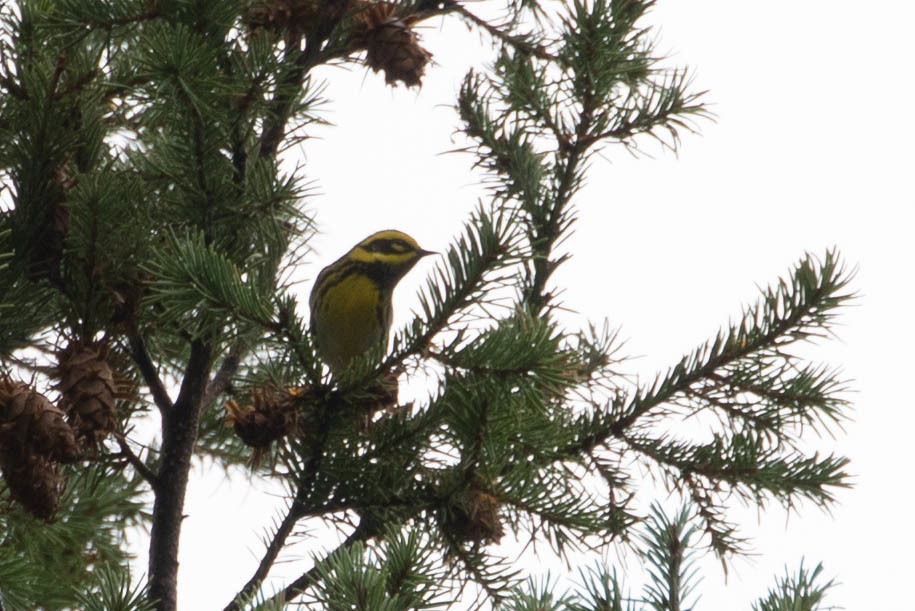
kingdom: Animalia
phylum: Chordata
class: Aves
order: Passeriformes
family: Parulidae
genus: Setophaga
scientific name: Setophaga townsendi
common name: Townsend's warbler
